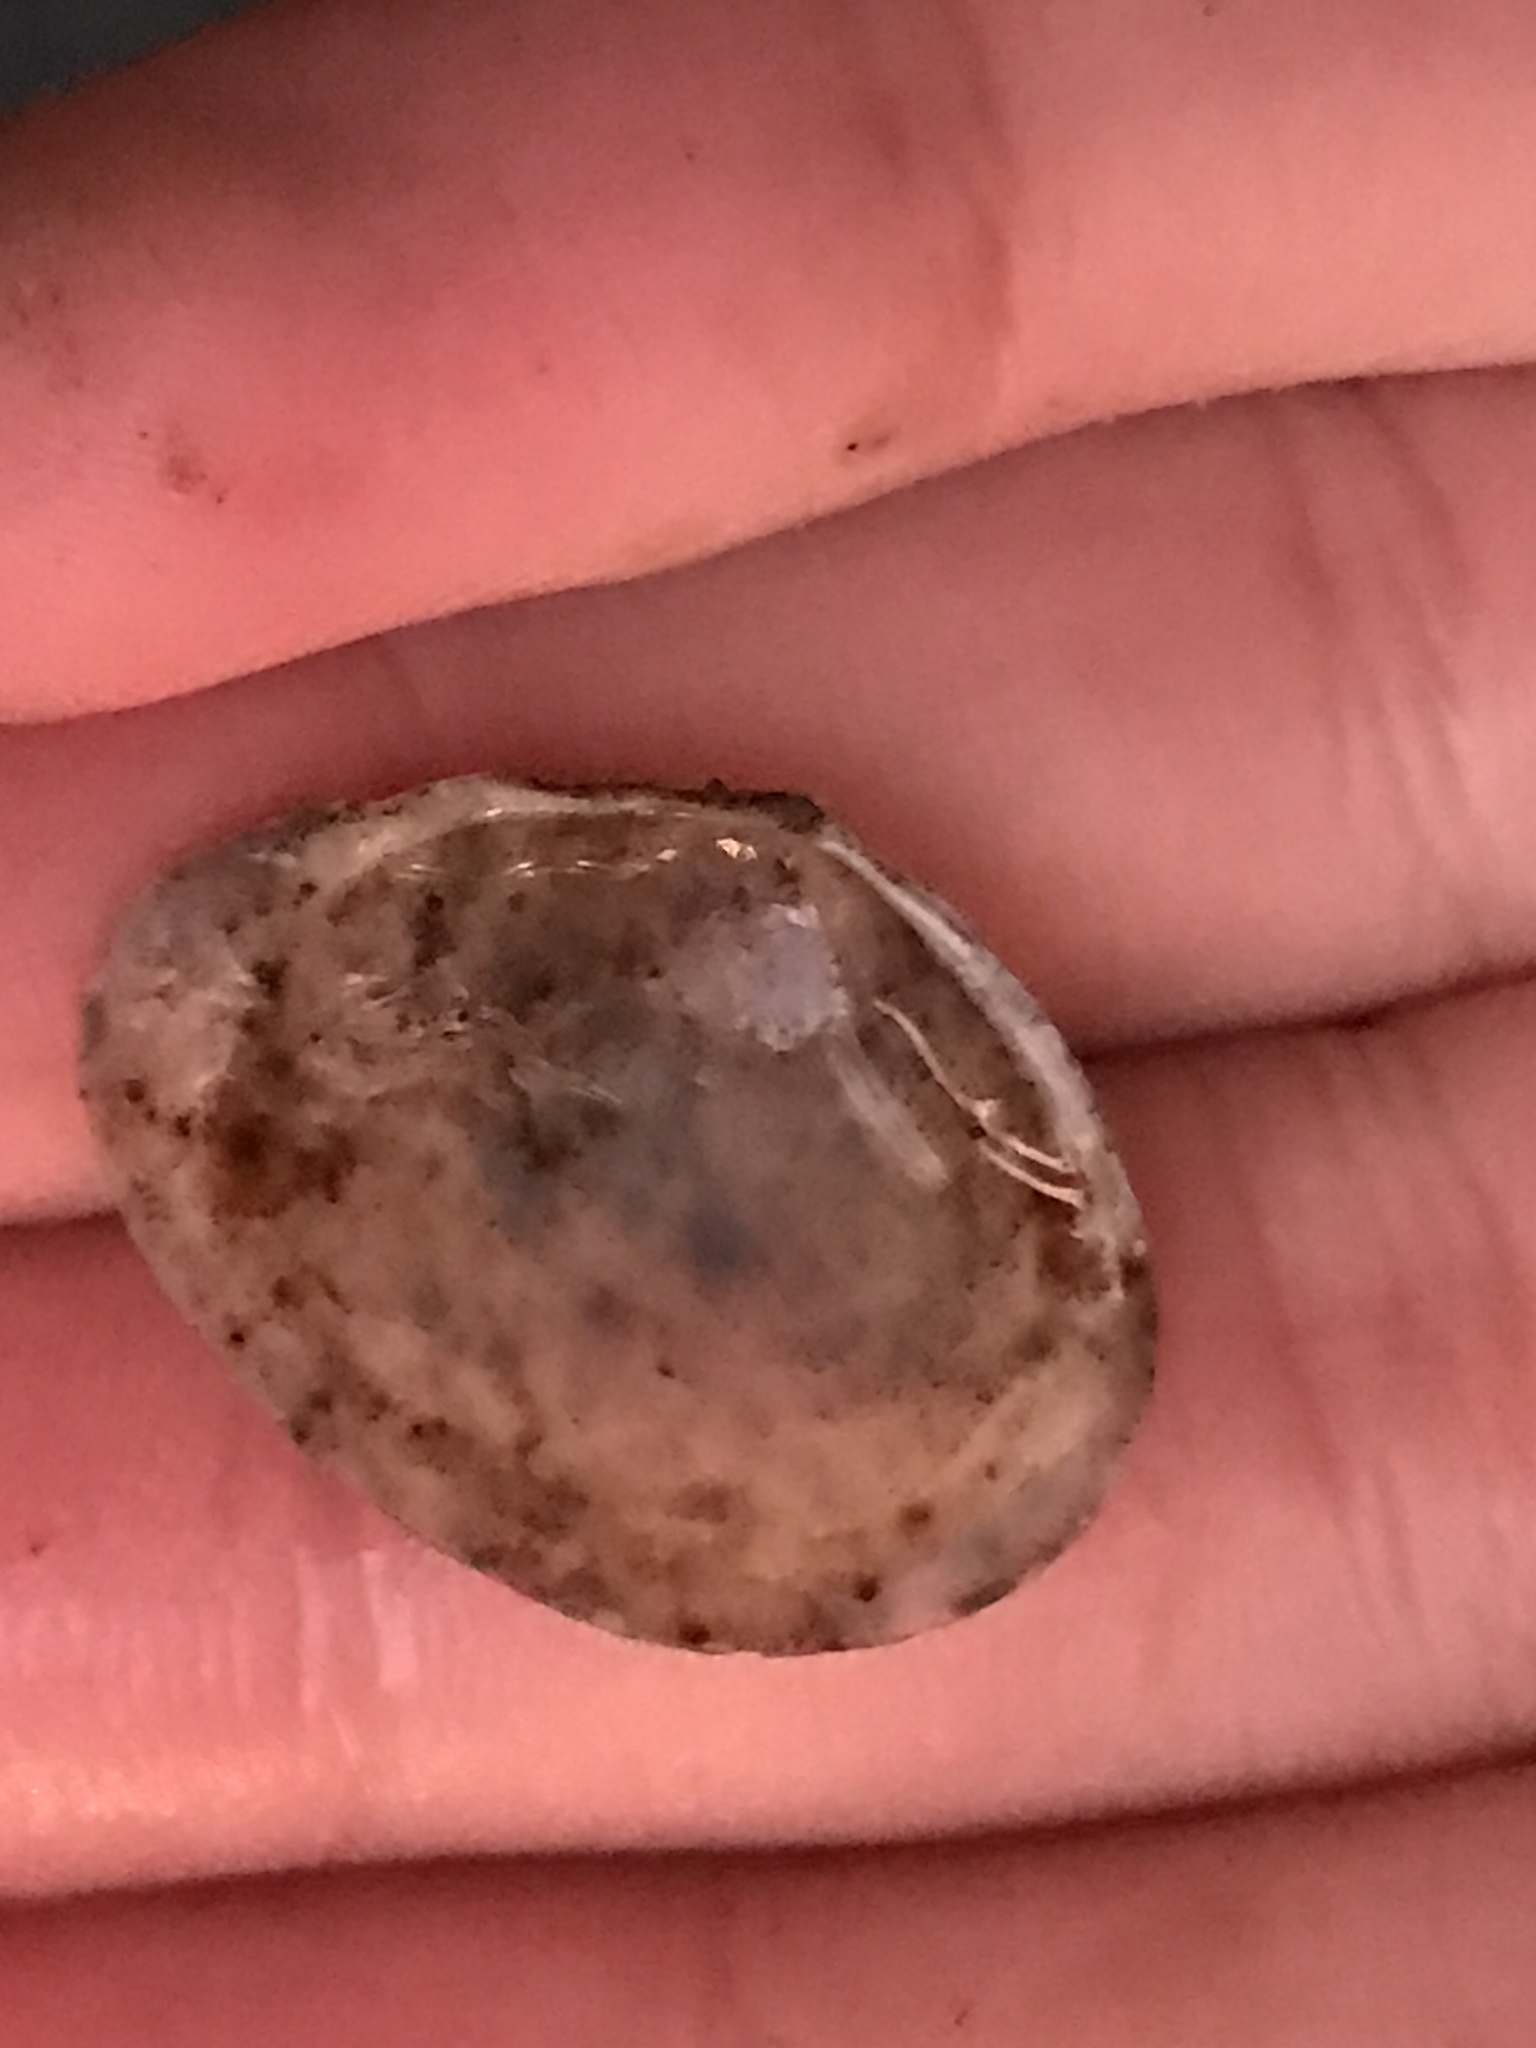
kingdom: Animalia
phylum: Mollusca
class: Bivalvia
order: Cardiida
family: Tellinidae
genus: Macoma
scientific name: Macoma petalum
